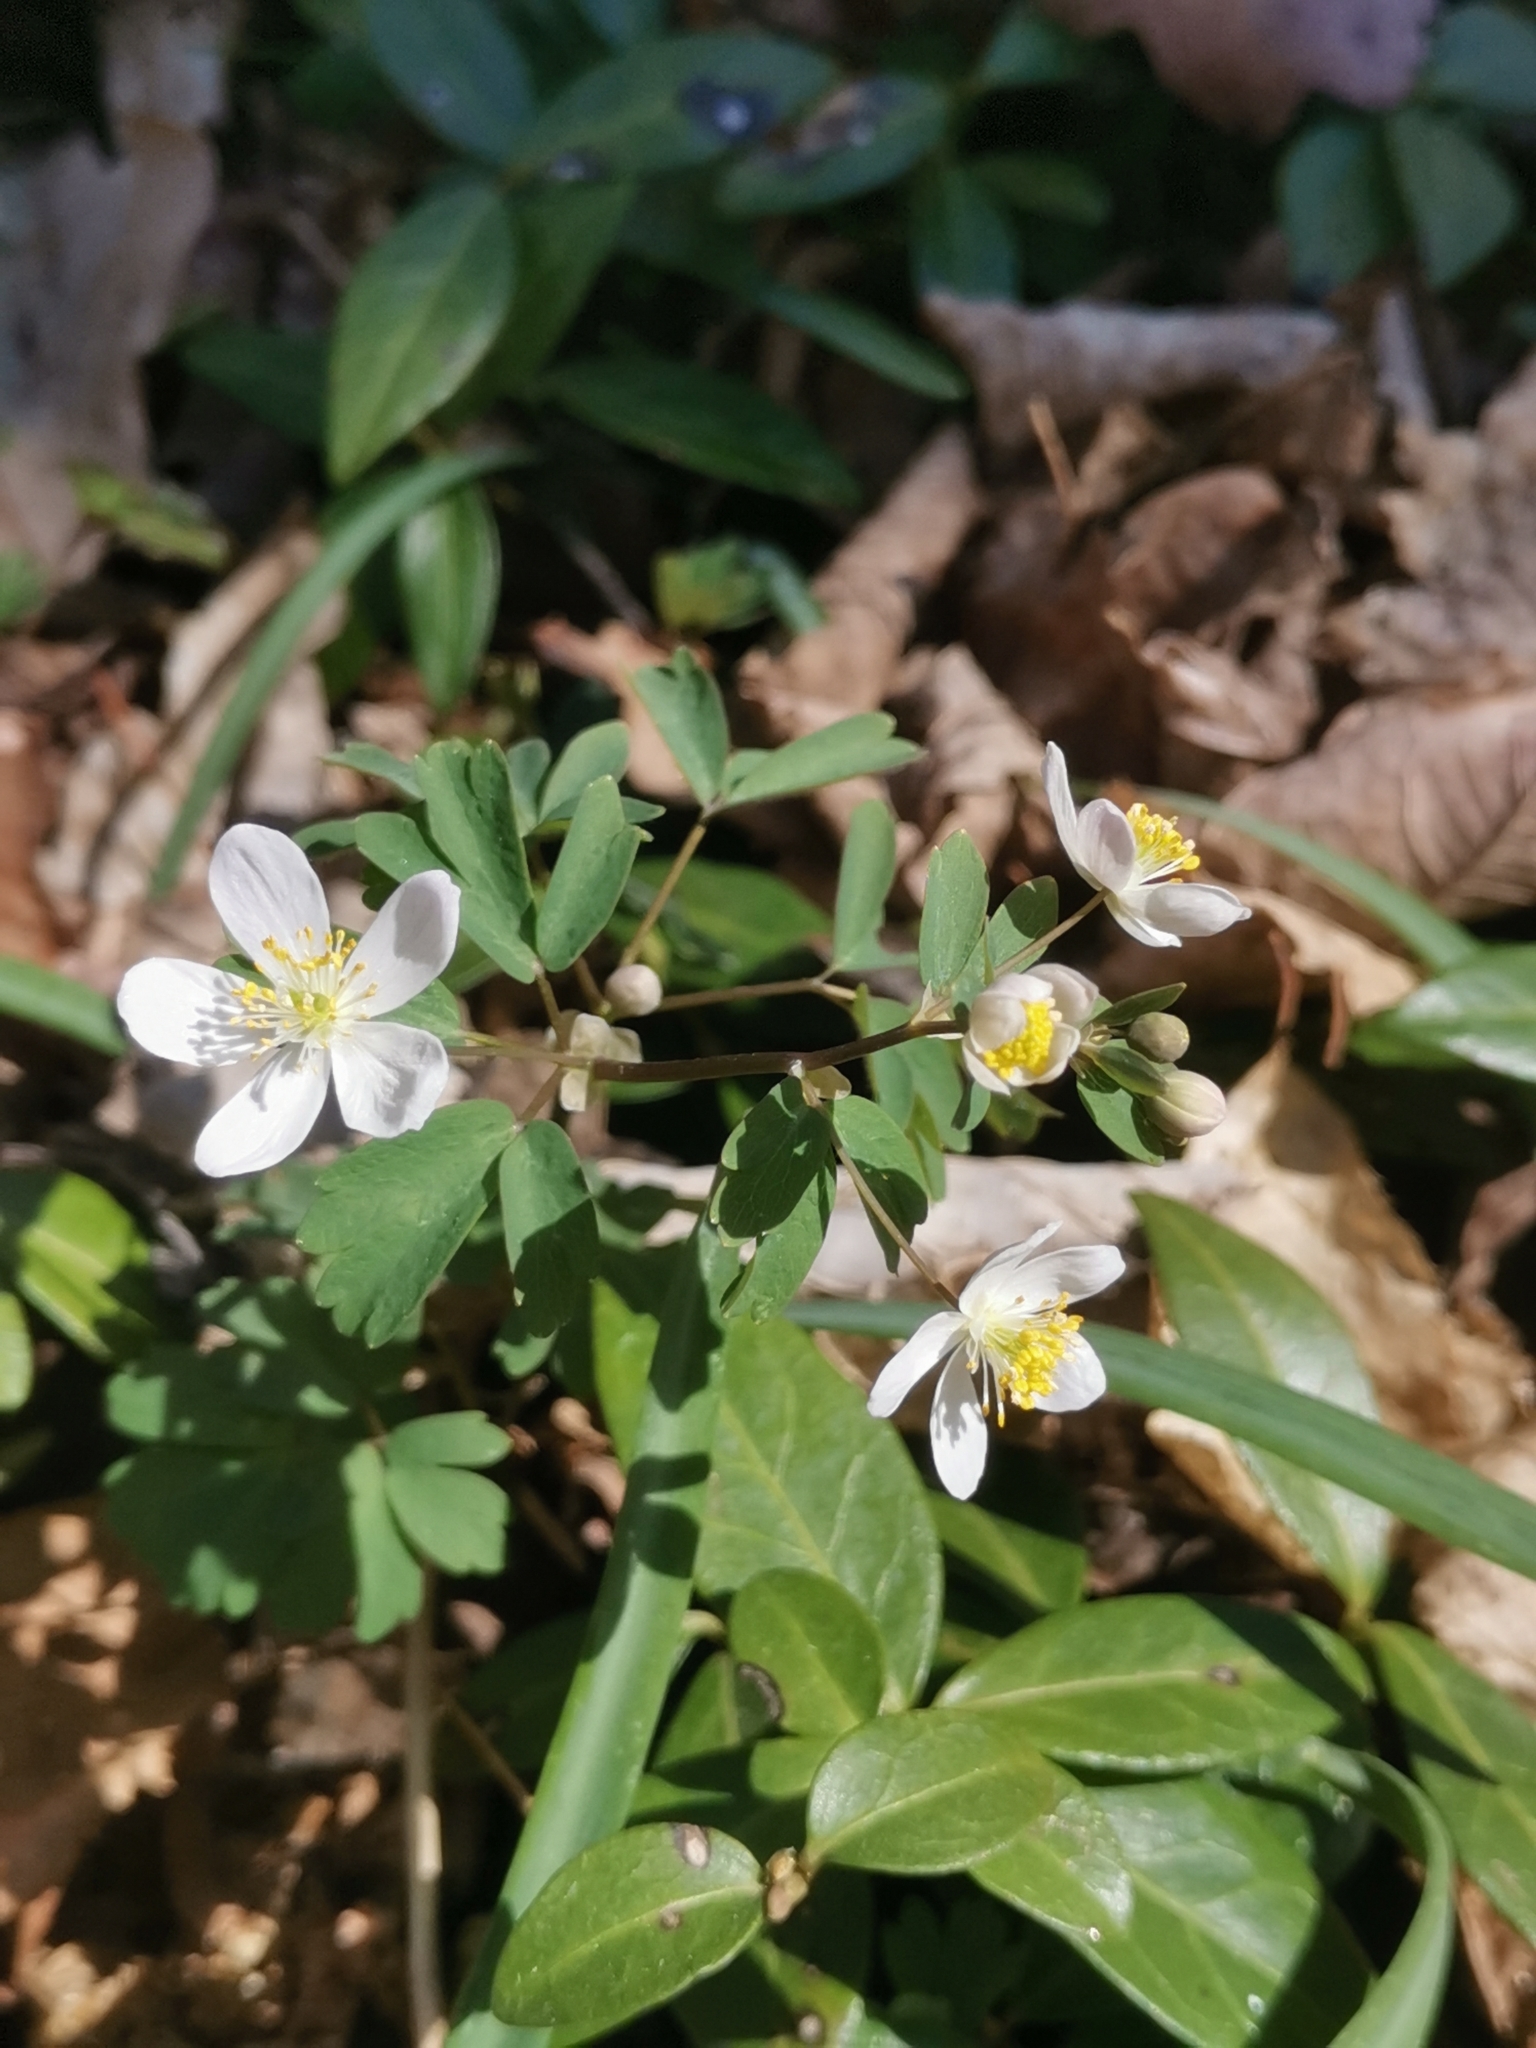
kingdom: Plantae
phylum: Tracheophyta
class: Magnoliopsida
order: Ranunculales
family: Ranunculaceae
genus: Isopyrum
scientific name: Isopyrum thalictroides
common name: Isopyrum
